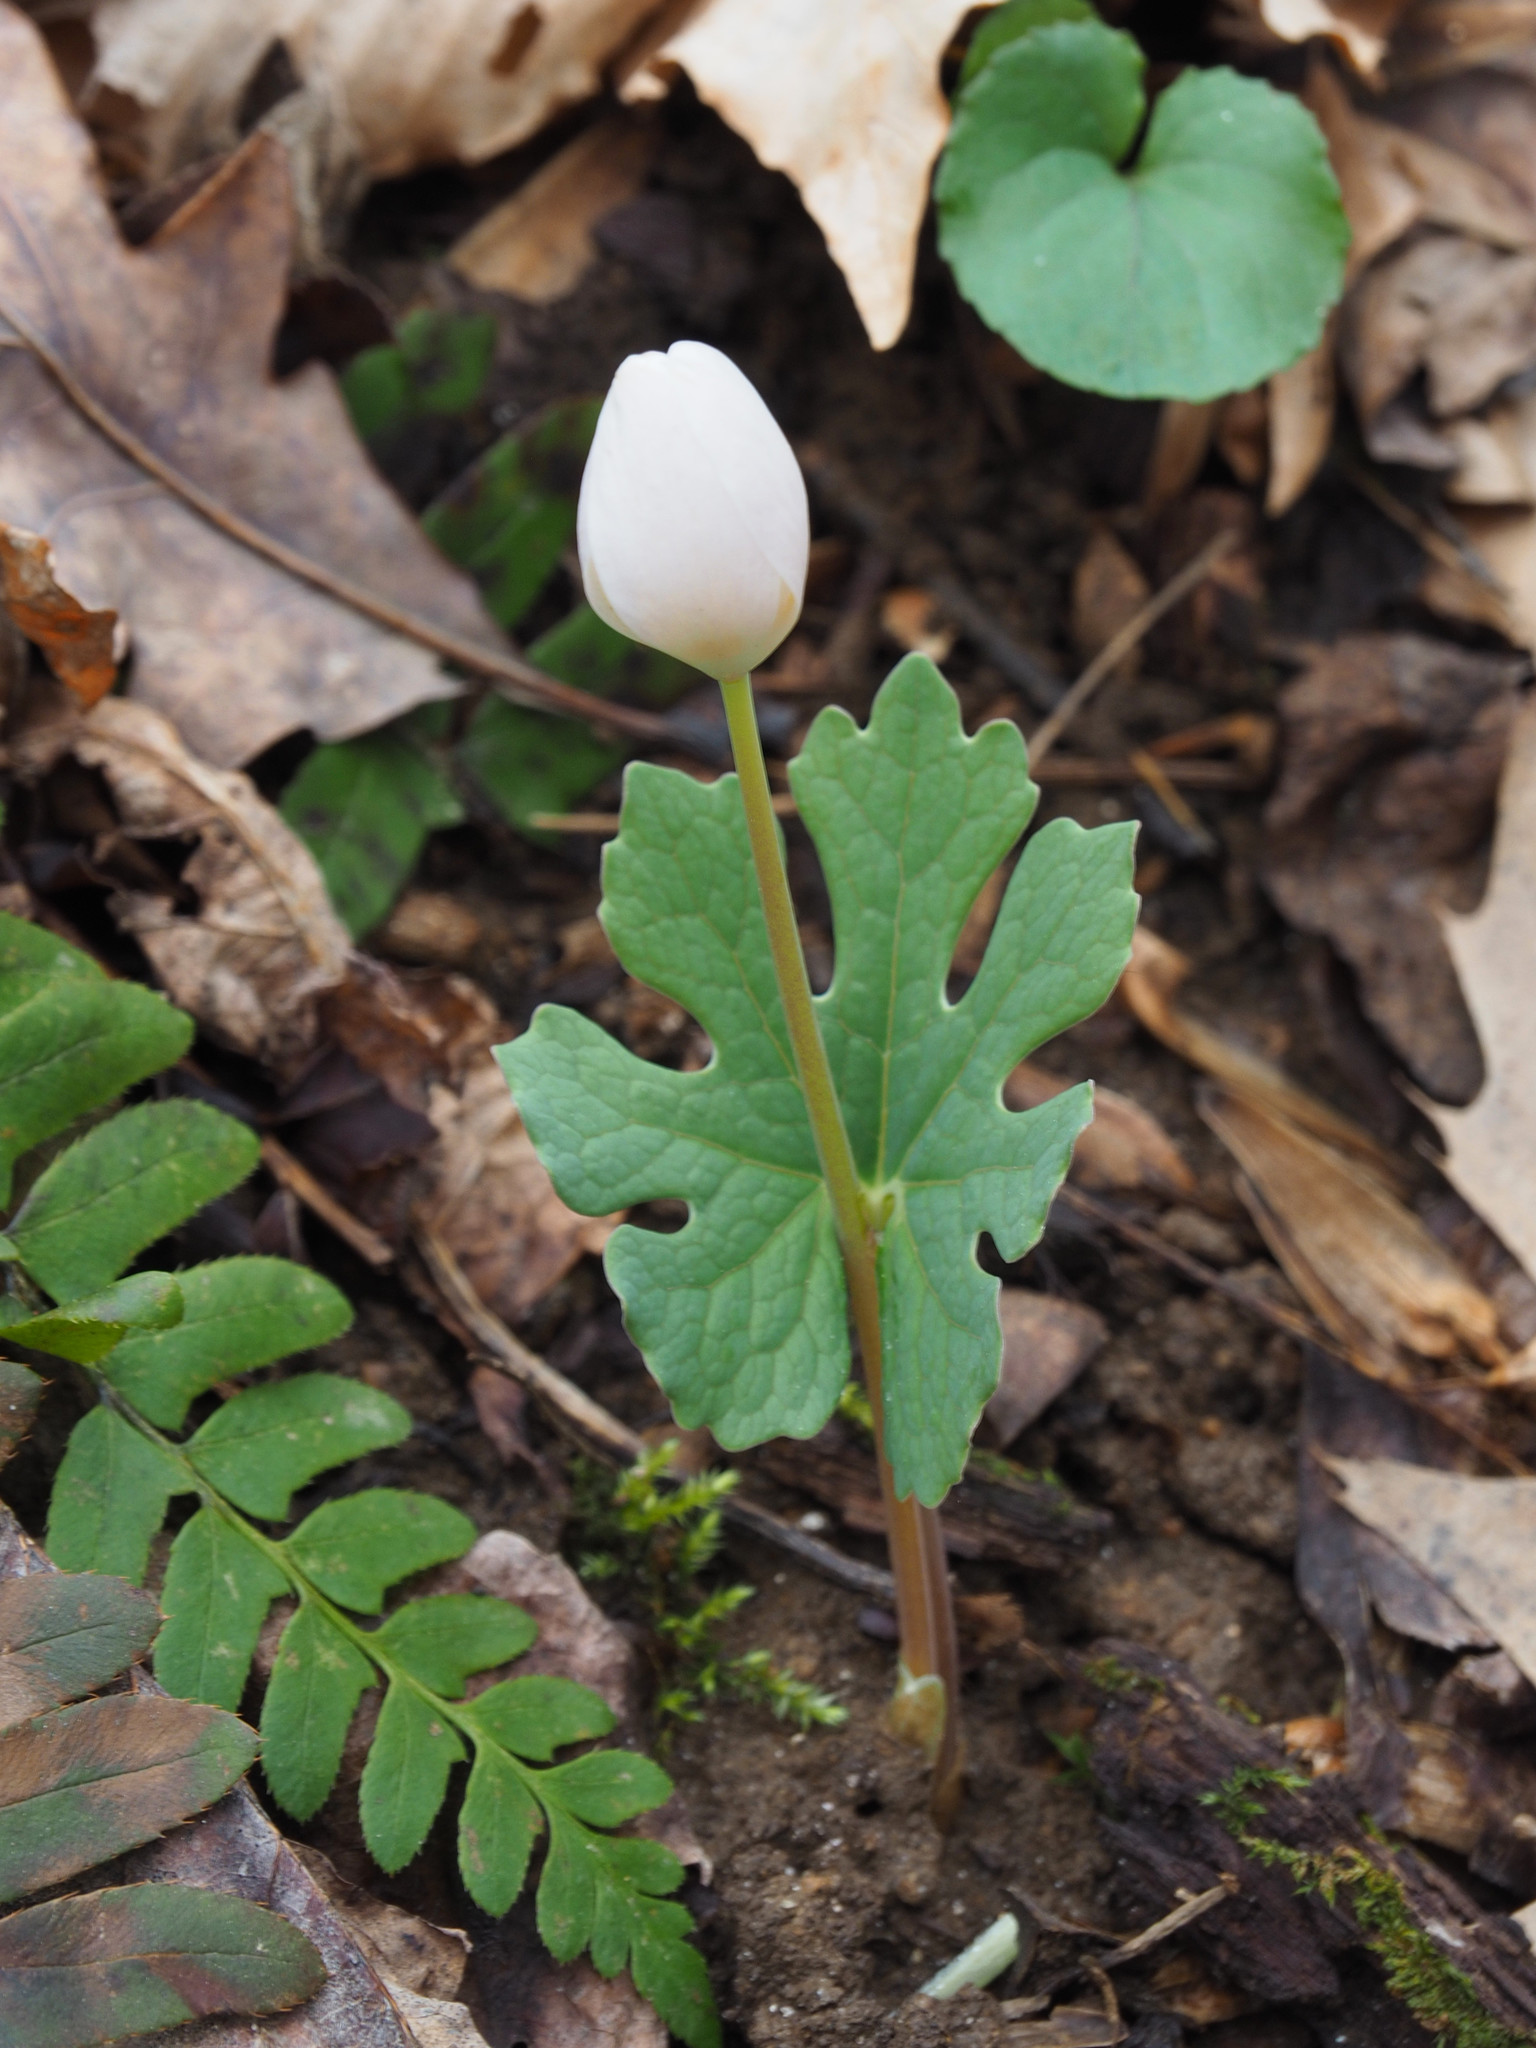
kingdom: Plantae
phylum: Tracheophyta
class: Magnoliopsida
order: Ranunculales
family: Papaveraceae
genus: Sanguinaria
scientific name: Sanguinaria canadensis
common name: Bloodroot
